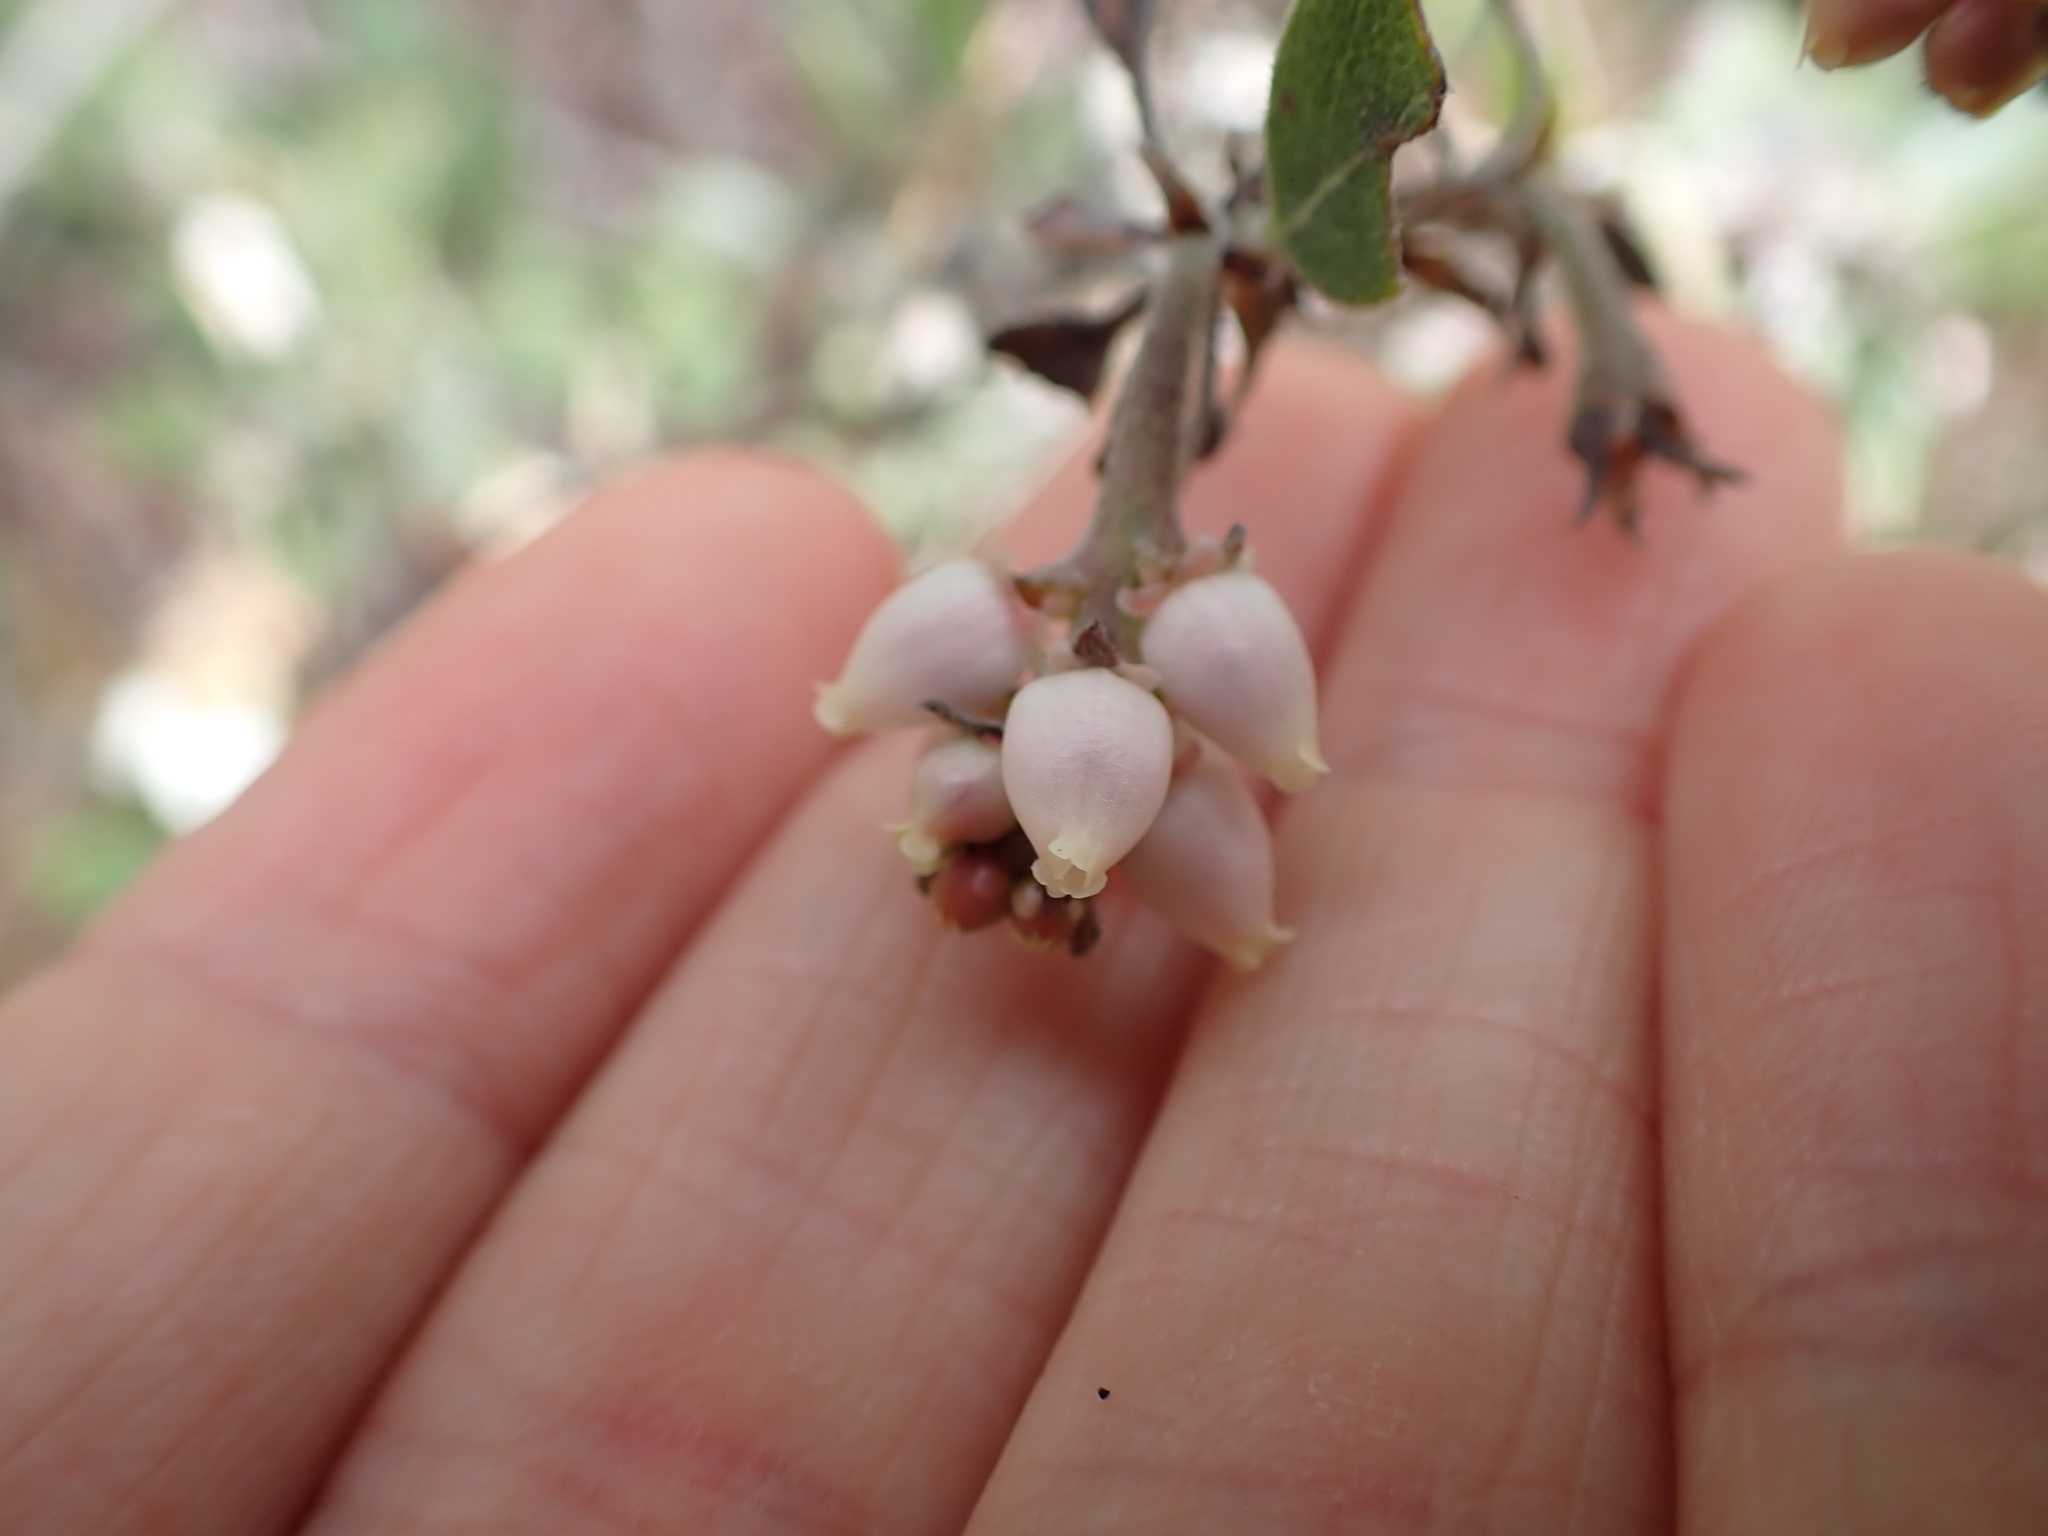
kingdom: Plantae
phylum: Tracheophyta
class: Magnoliopsida
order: Ericales
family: Ericaceae
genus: Arctostaphylos
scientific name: Arctostaphylos columbiana
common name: Bristly bearberry
